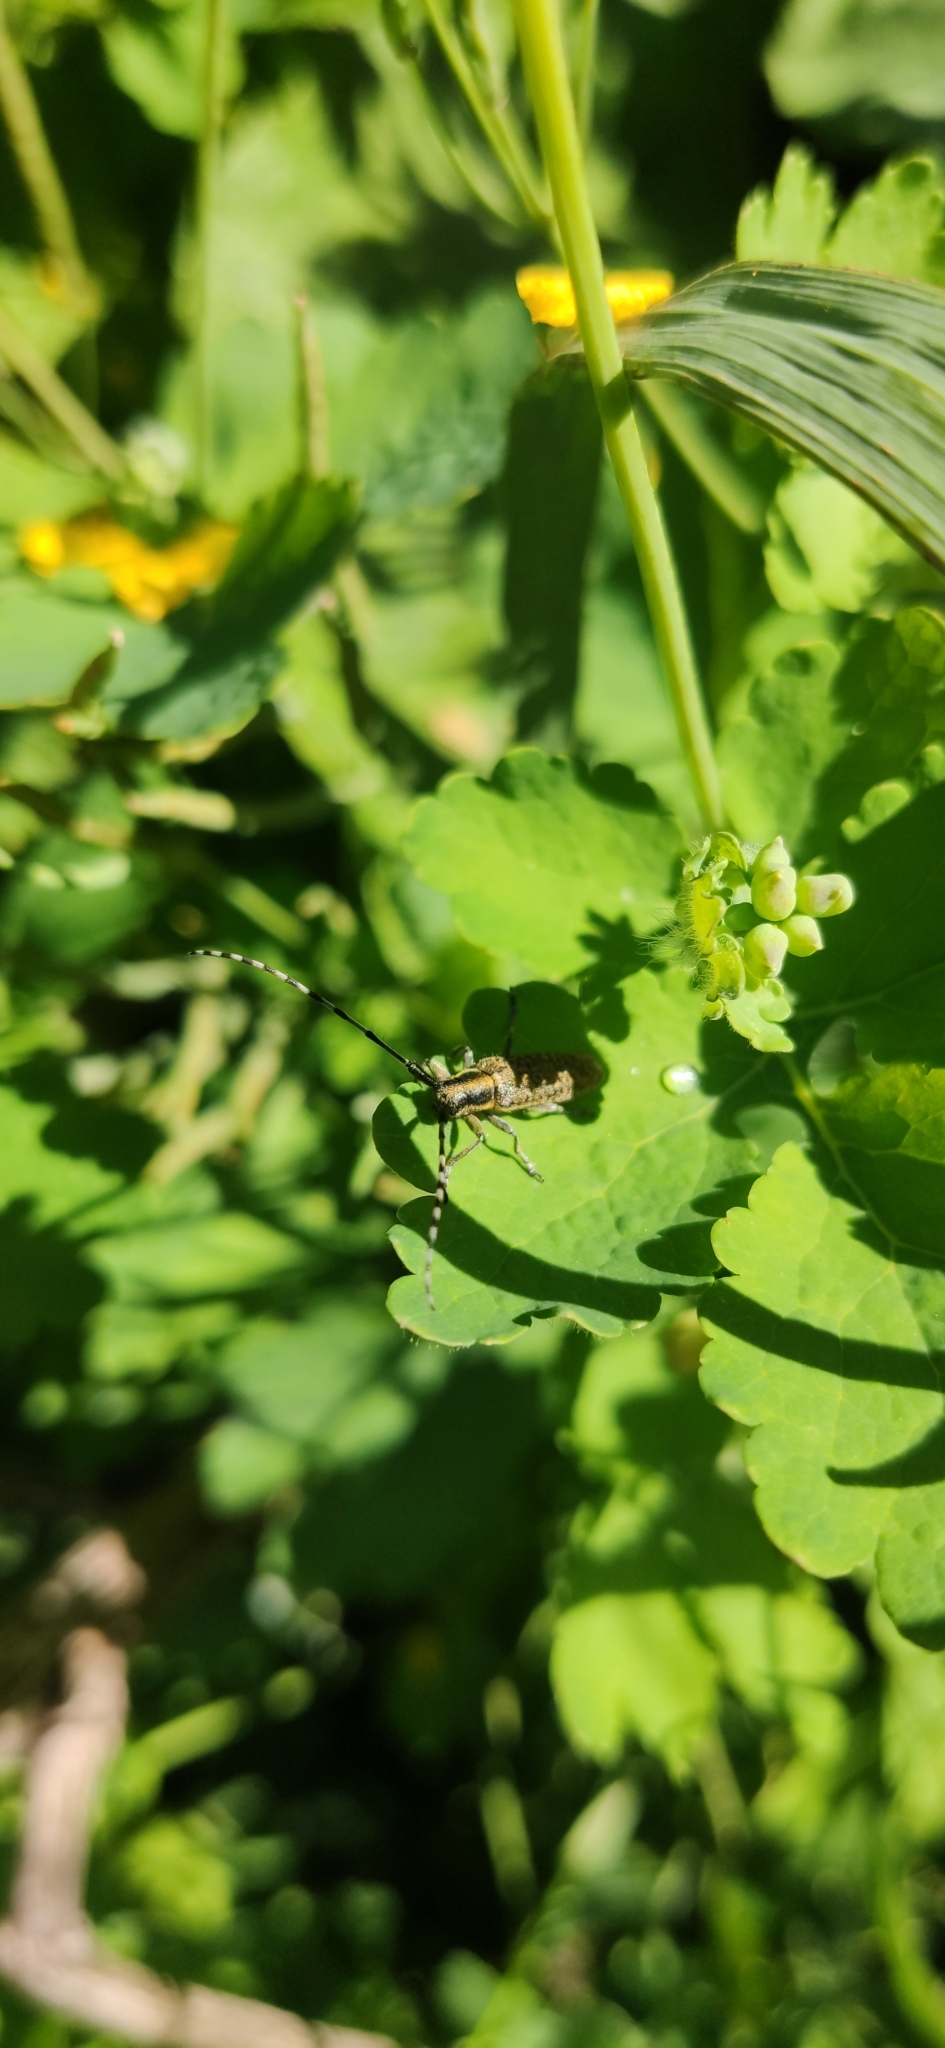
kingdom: Animalia
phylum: Arthropoda
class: Insecta
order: Coleoptera
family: Cerambycidae
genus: Agapanthia
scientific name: Agapanthia villosoviridescens
